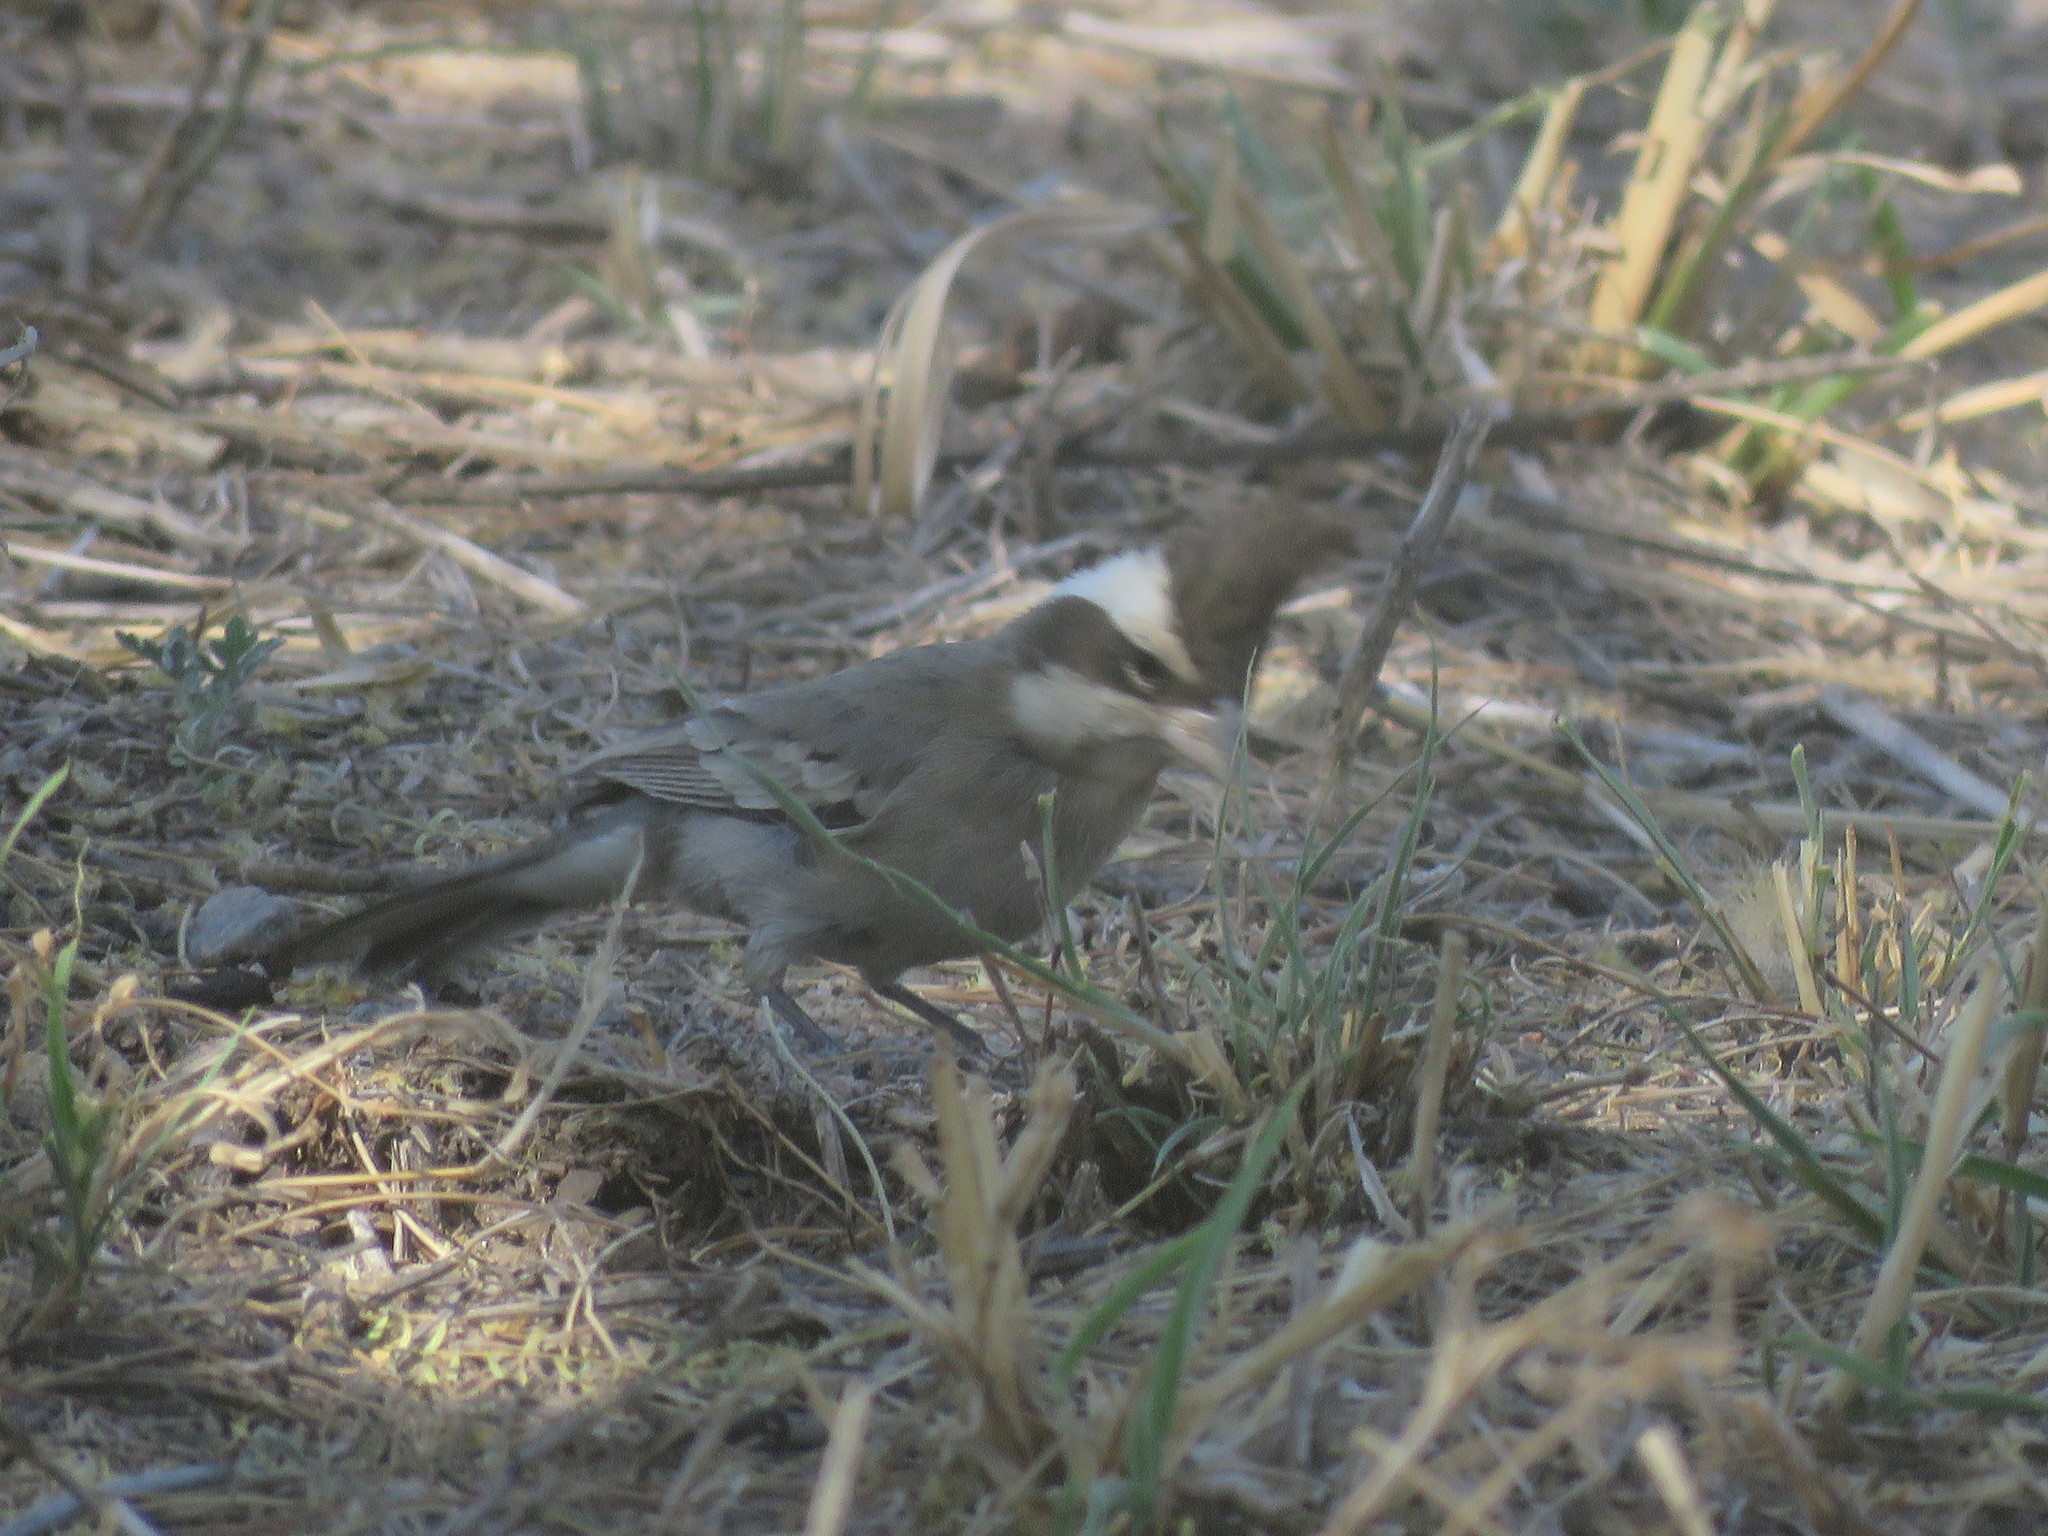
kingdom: Animalia
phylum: Chordata
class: Aves
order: Passeriformes
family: Thraupidae
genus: Lophospingus
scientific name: Lophospingus pusillus
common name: Black-crested finch
